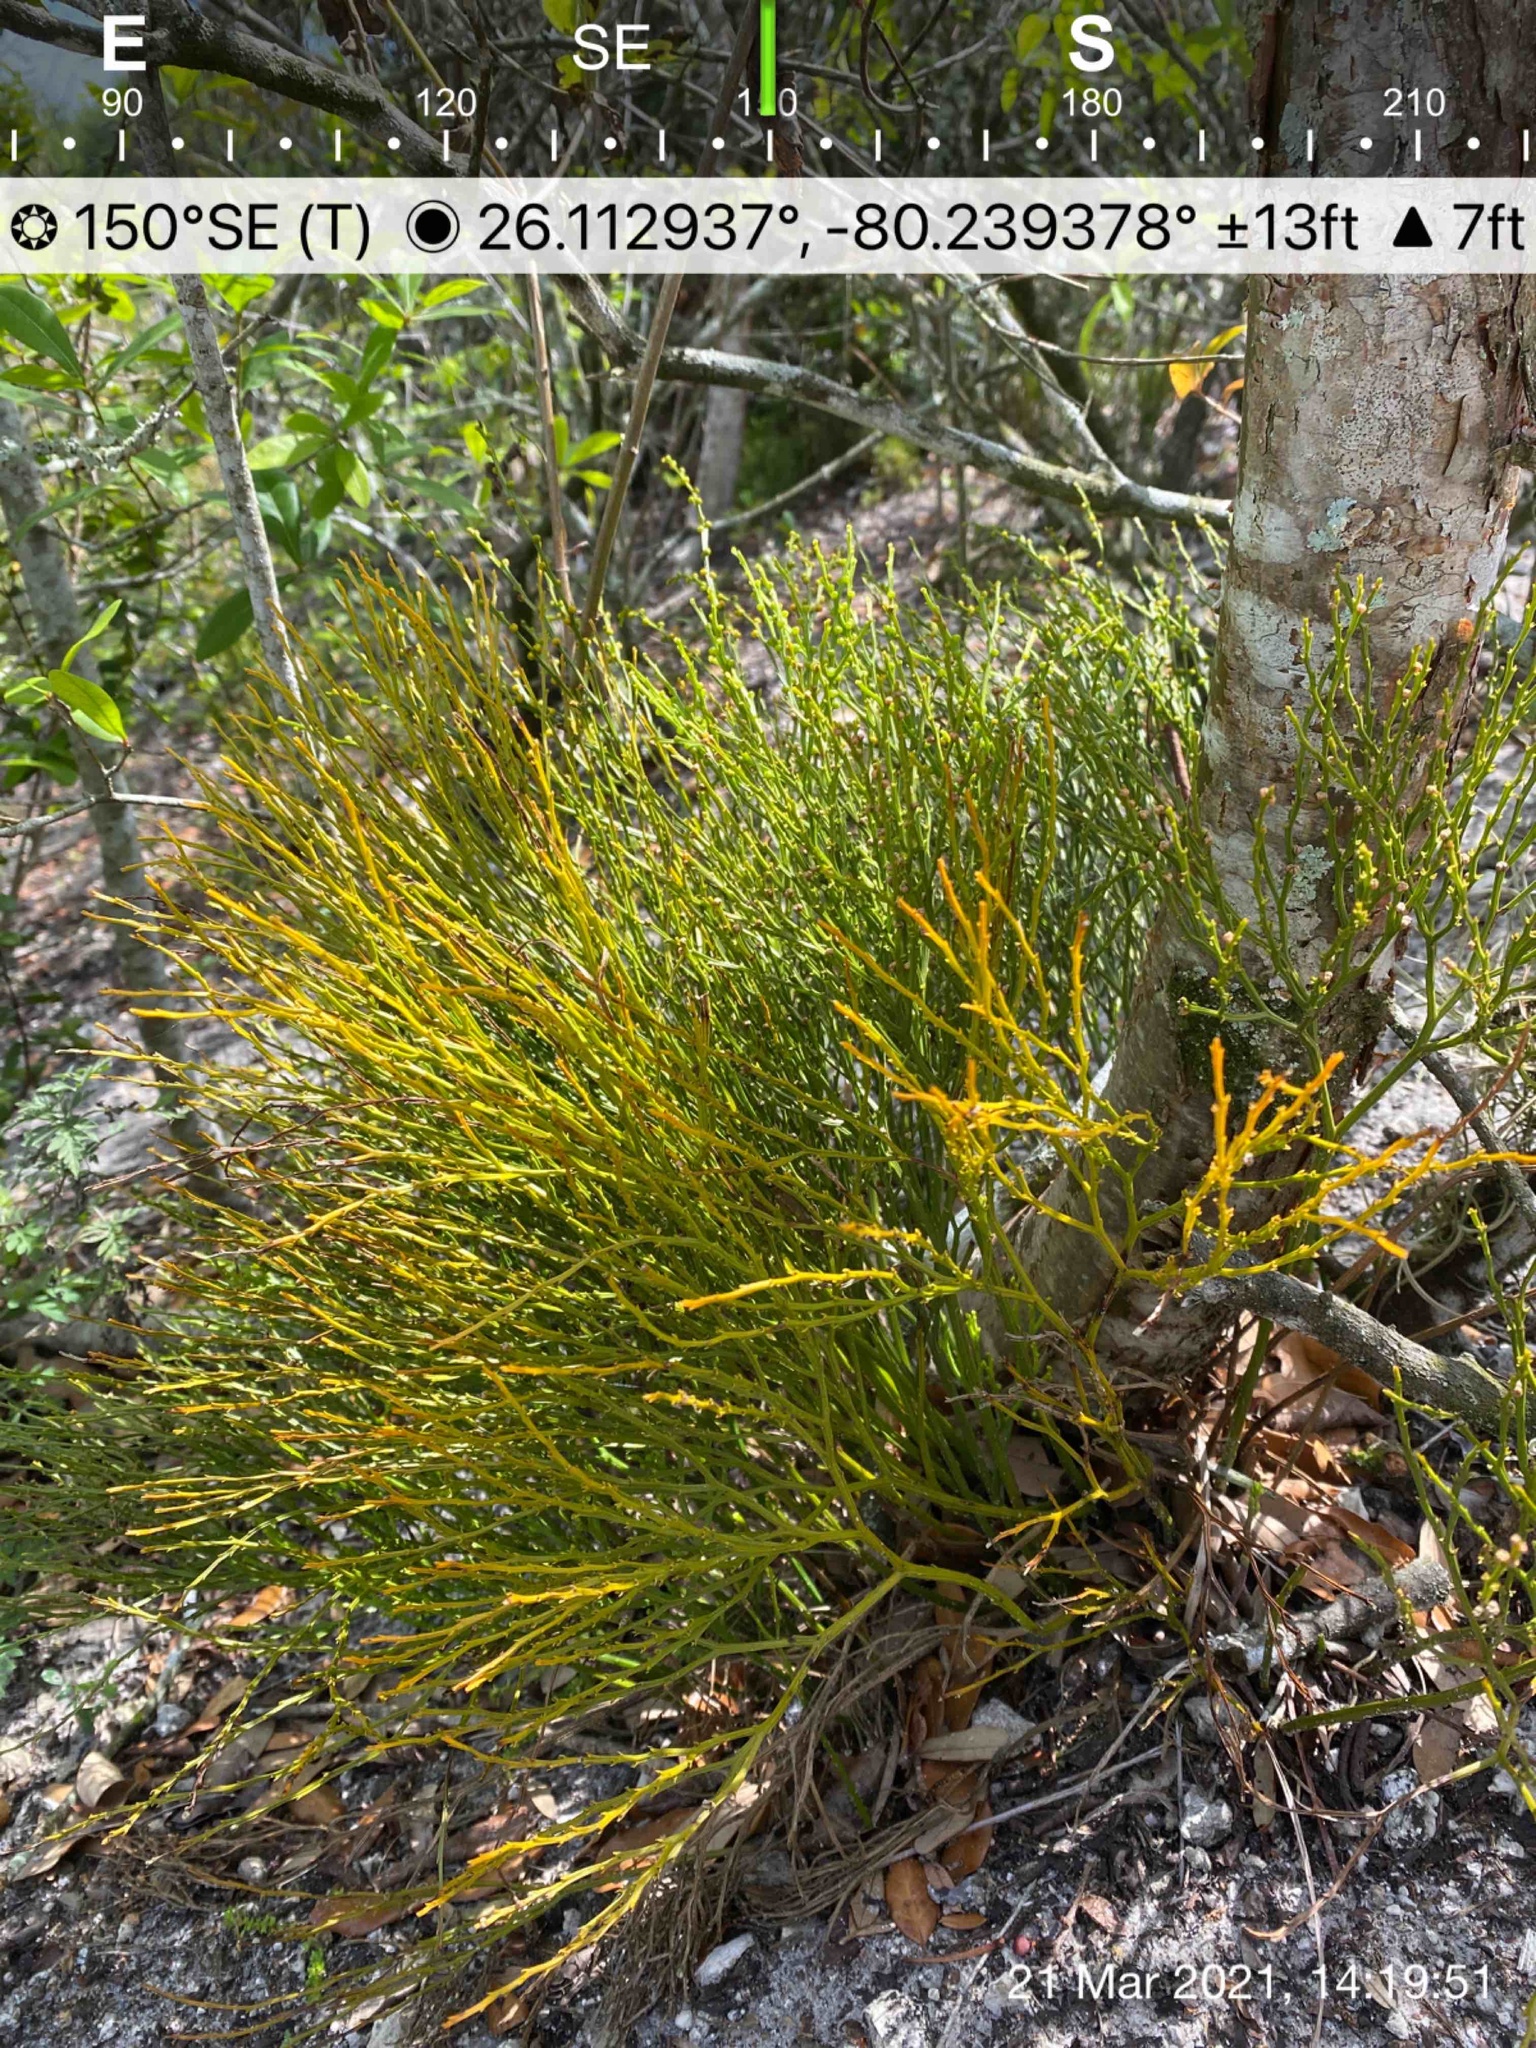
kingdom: Plantae
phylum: Tracheophyta
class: Polypodiopsida
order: Psilotales
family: Psilotaceae
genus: Psilotum
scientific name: Psilotum nudum
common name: Skeleton fork fern
